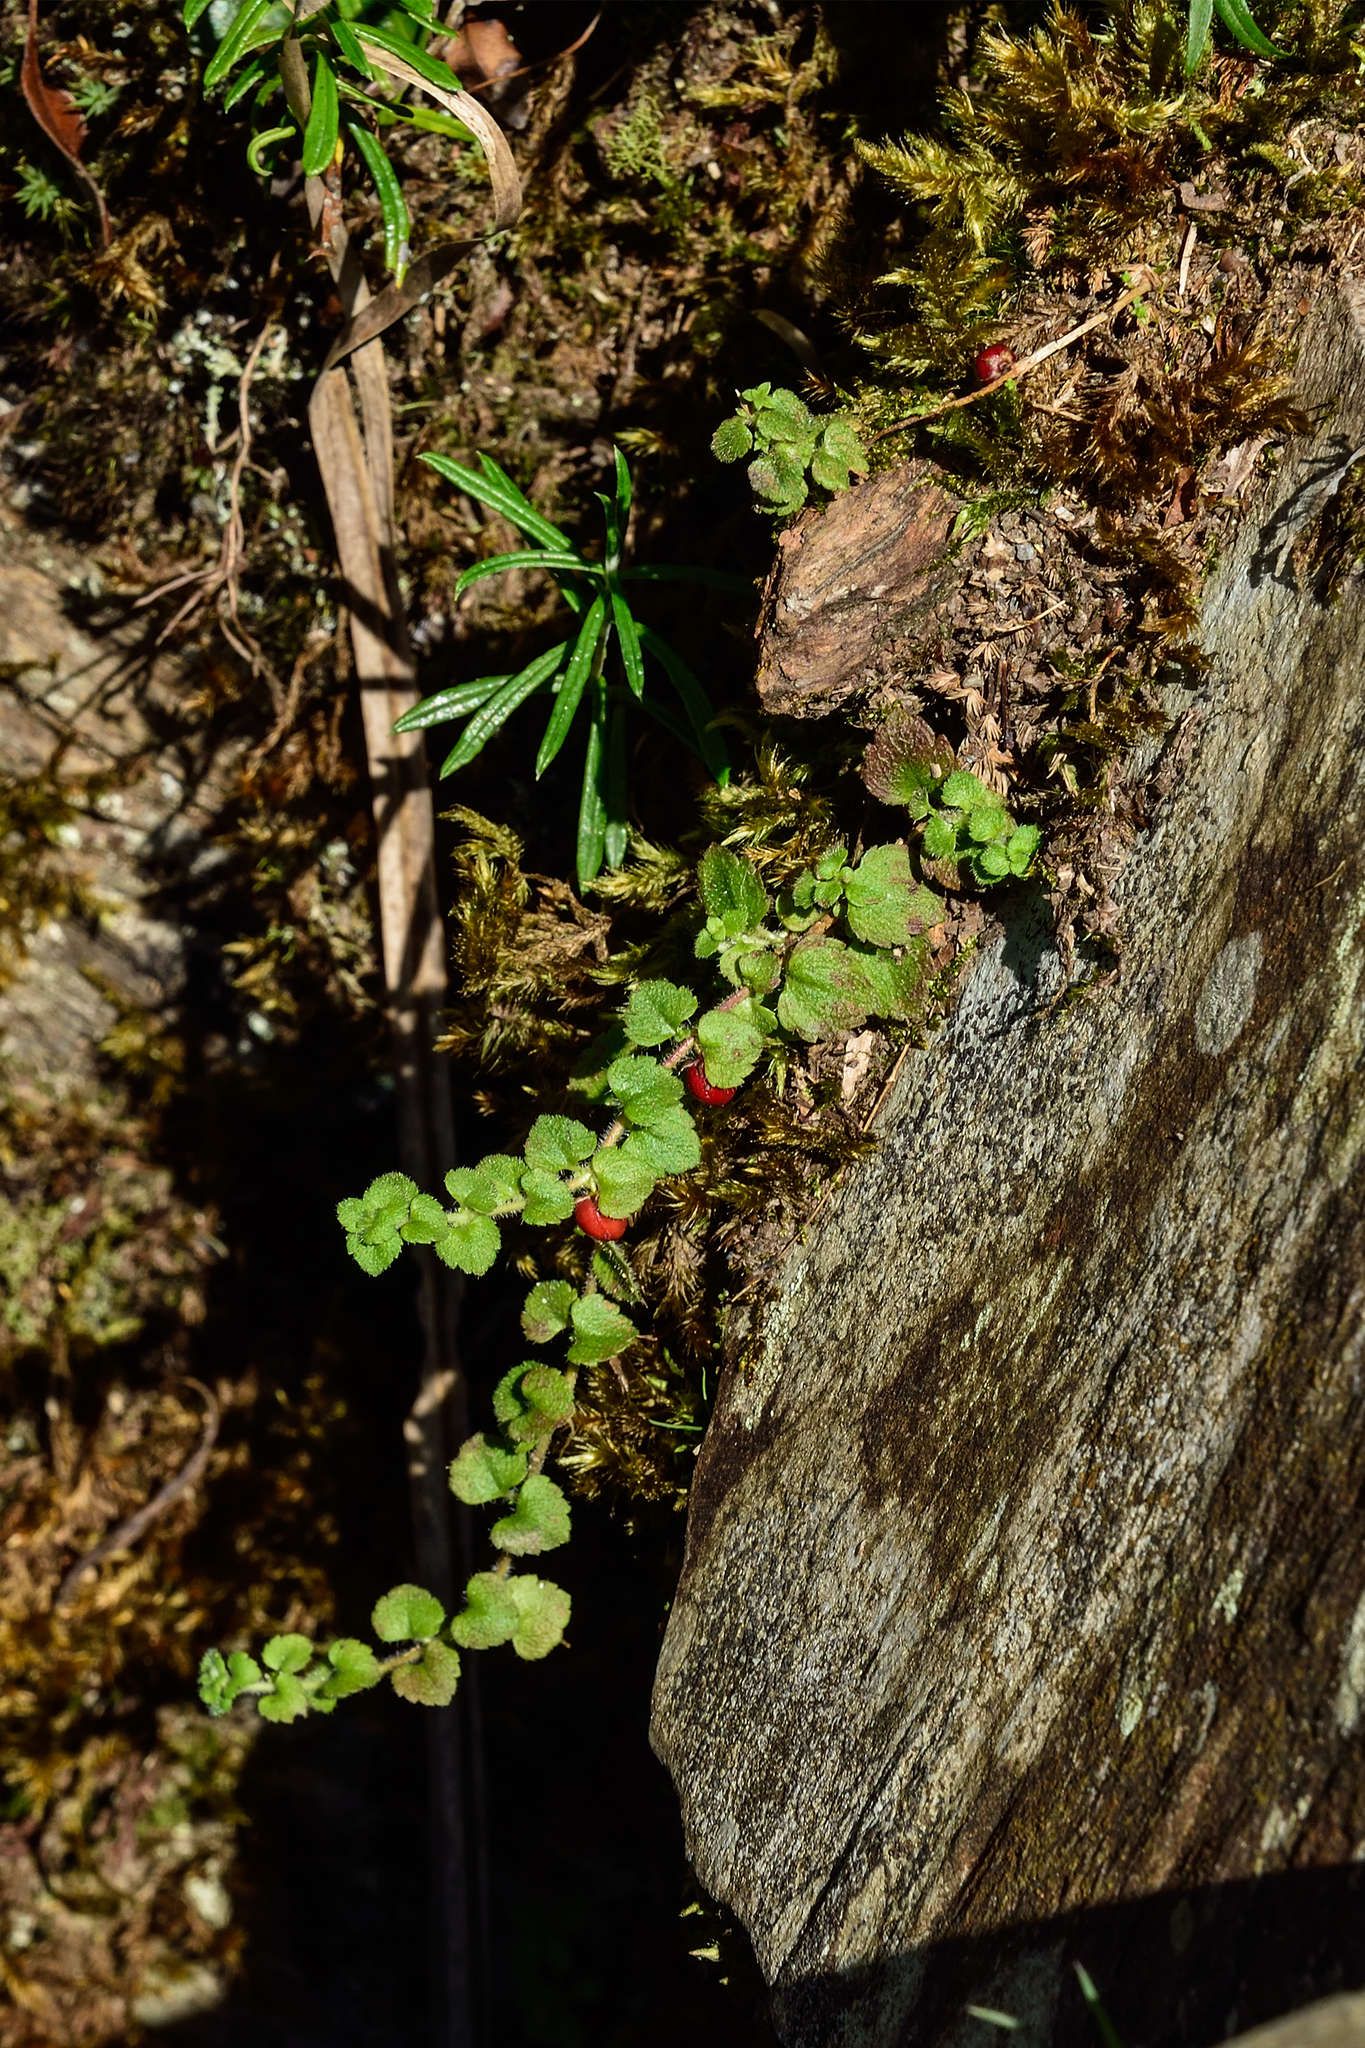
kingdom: Plantae
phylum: Tracheophyta
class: Magnoliopsida
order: Lamiales
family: Plantaginaceae
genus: Hemiphragma
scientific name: Hemiphragma heterophyllum
